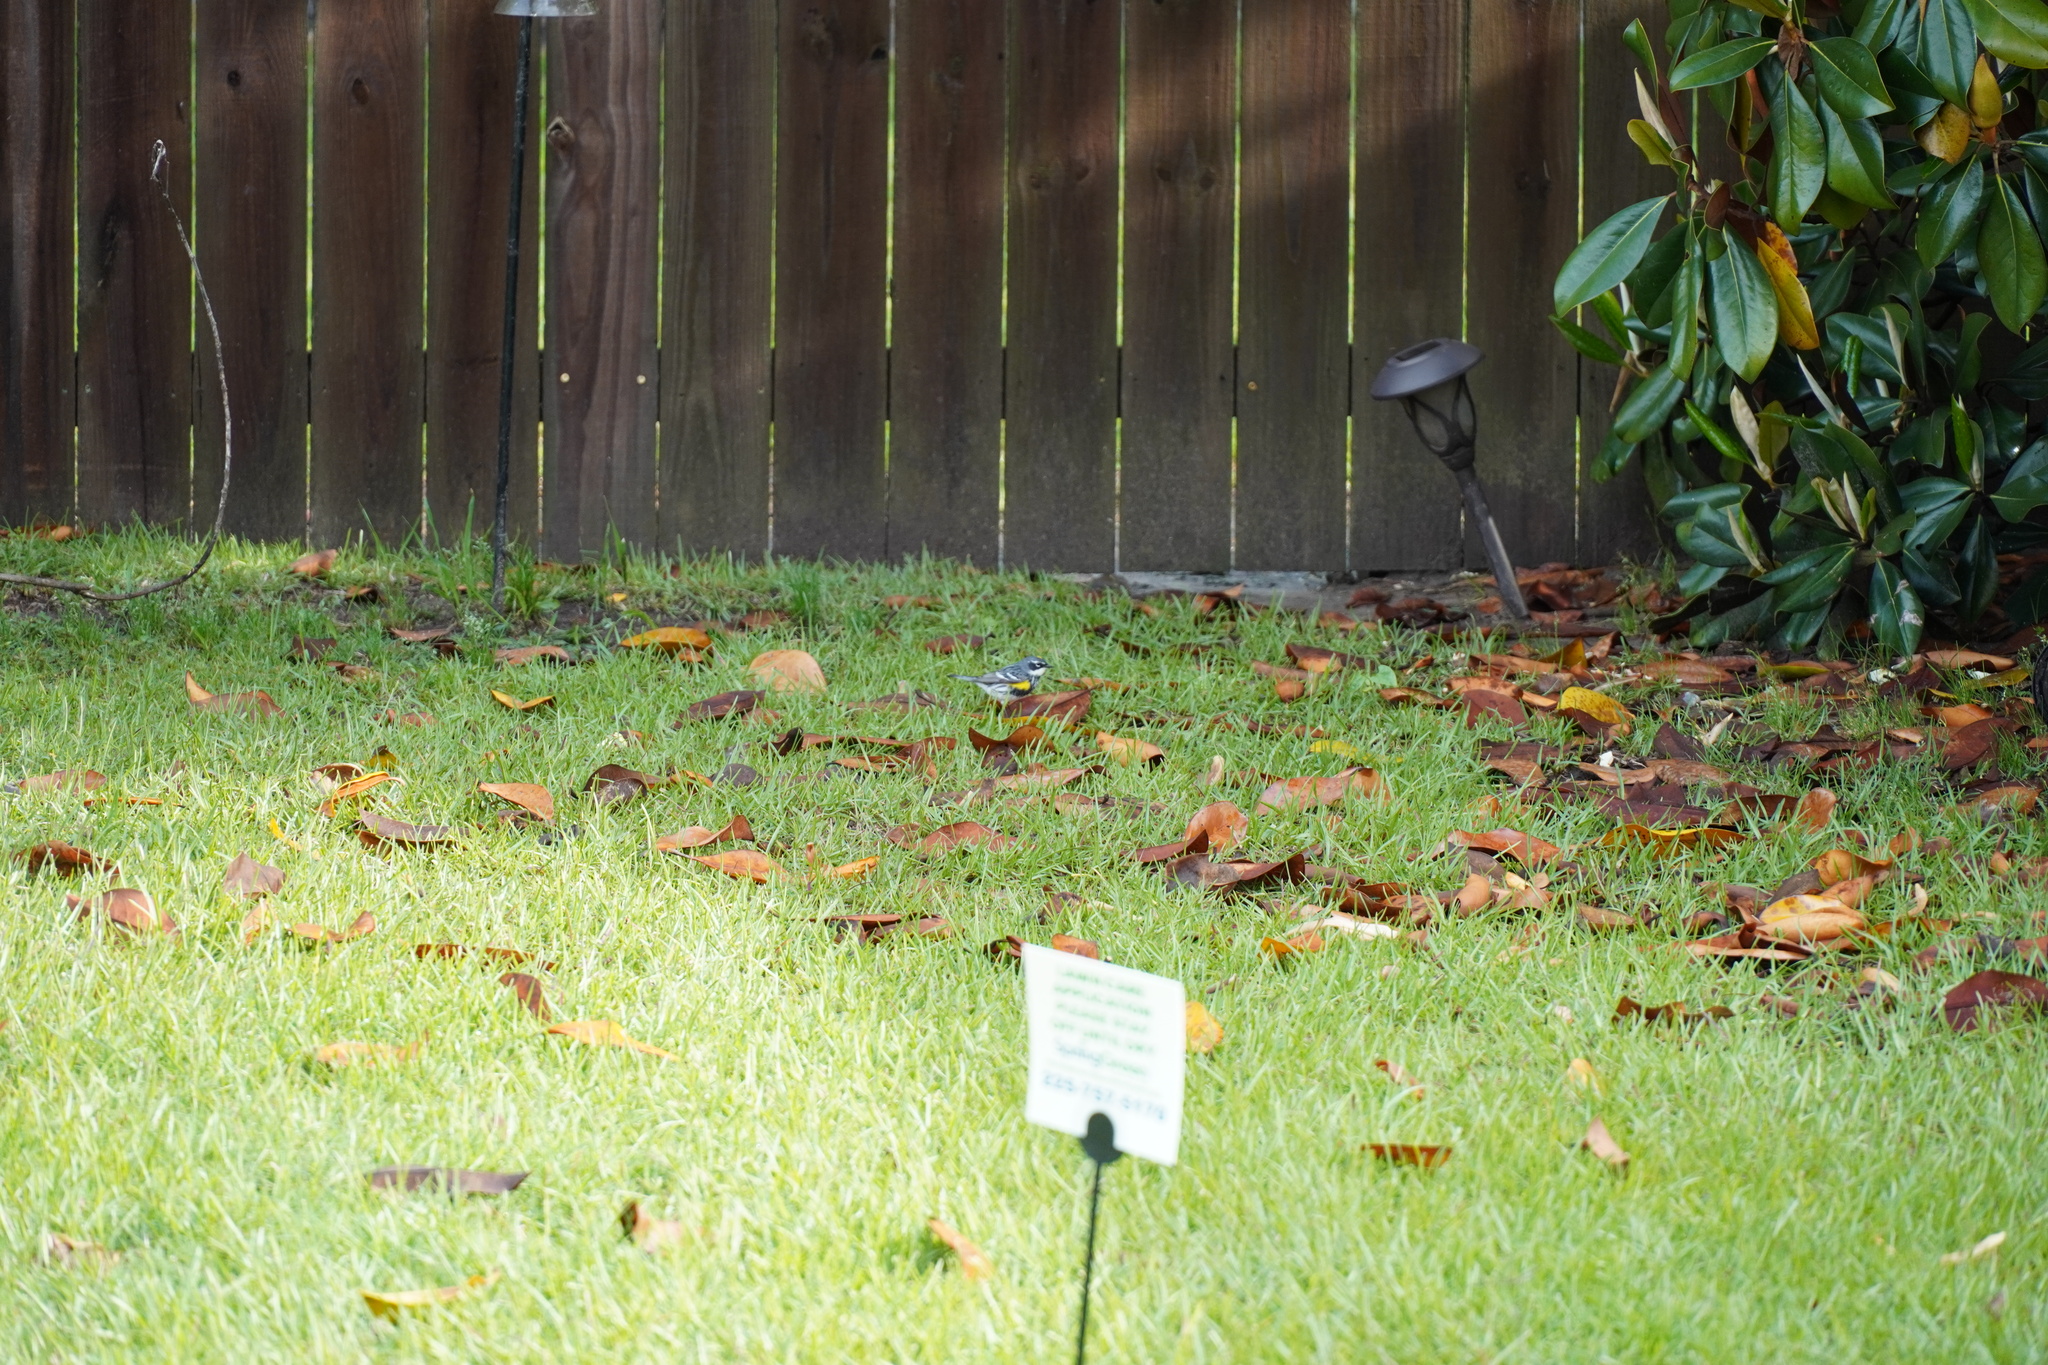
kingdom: Animalia
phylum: Chordata
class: Aves
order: Passeriformes
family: Parulidae
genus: Setophaga
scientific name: Setophaga coronata
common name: Myrtle warbler
